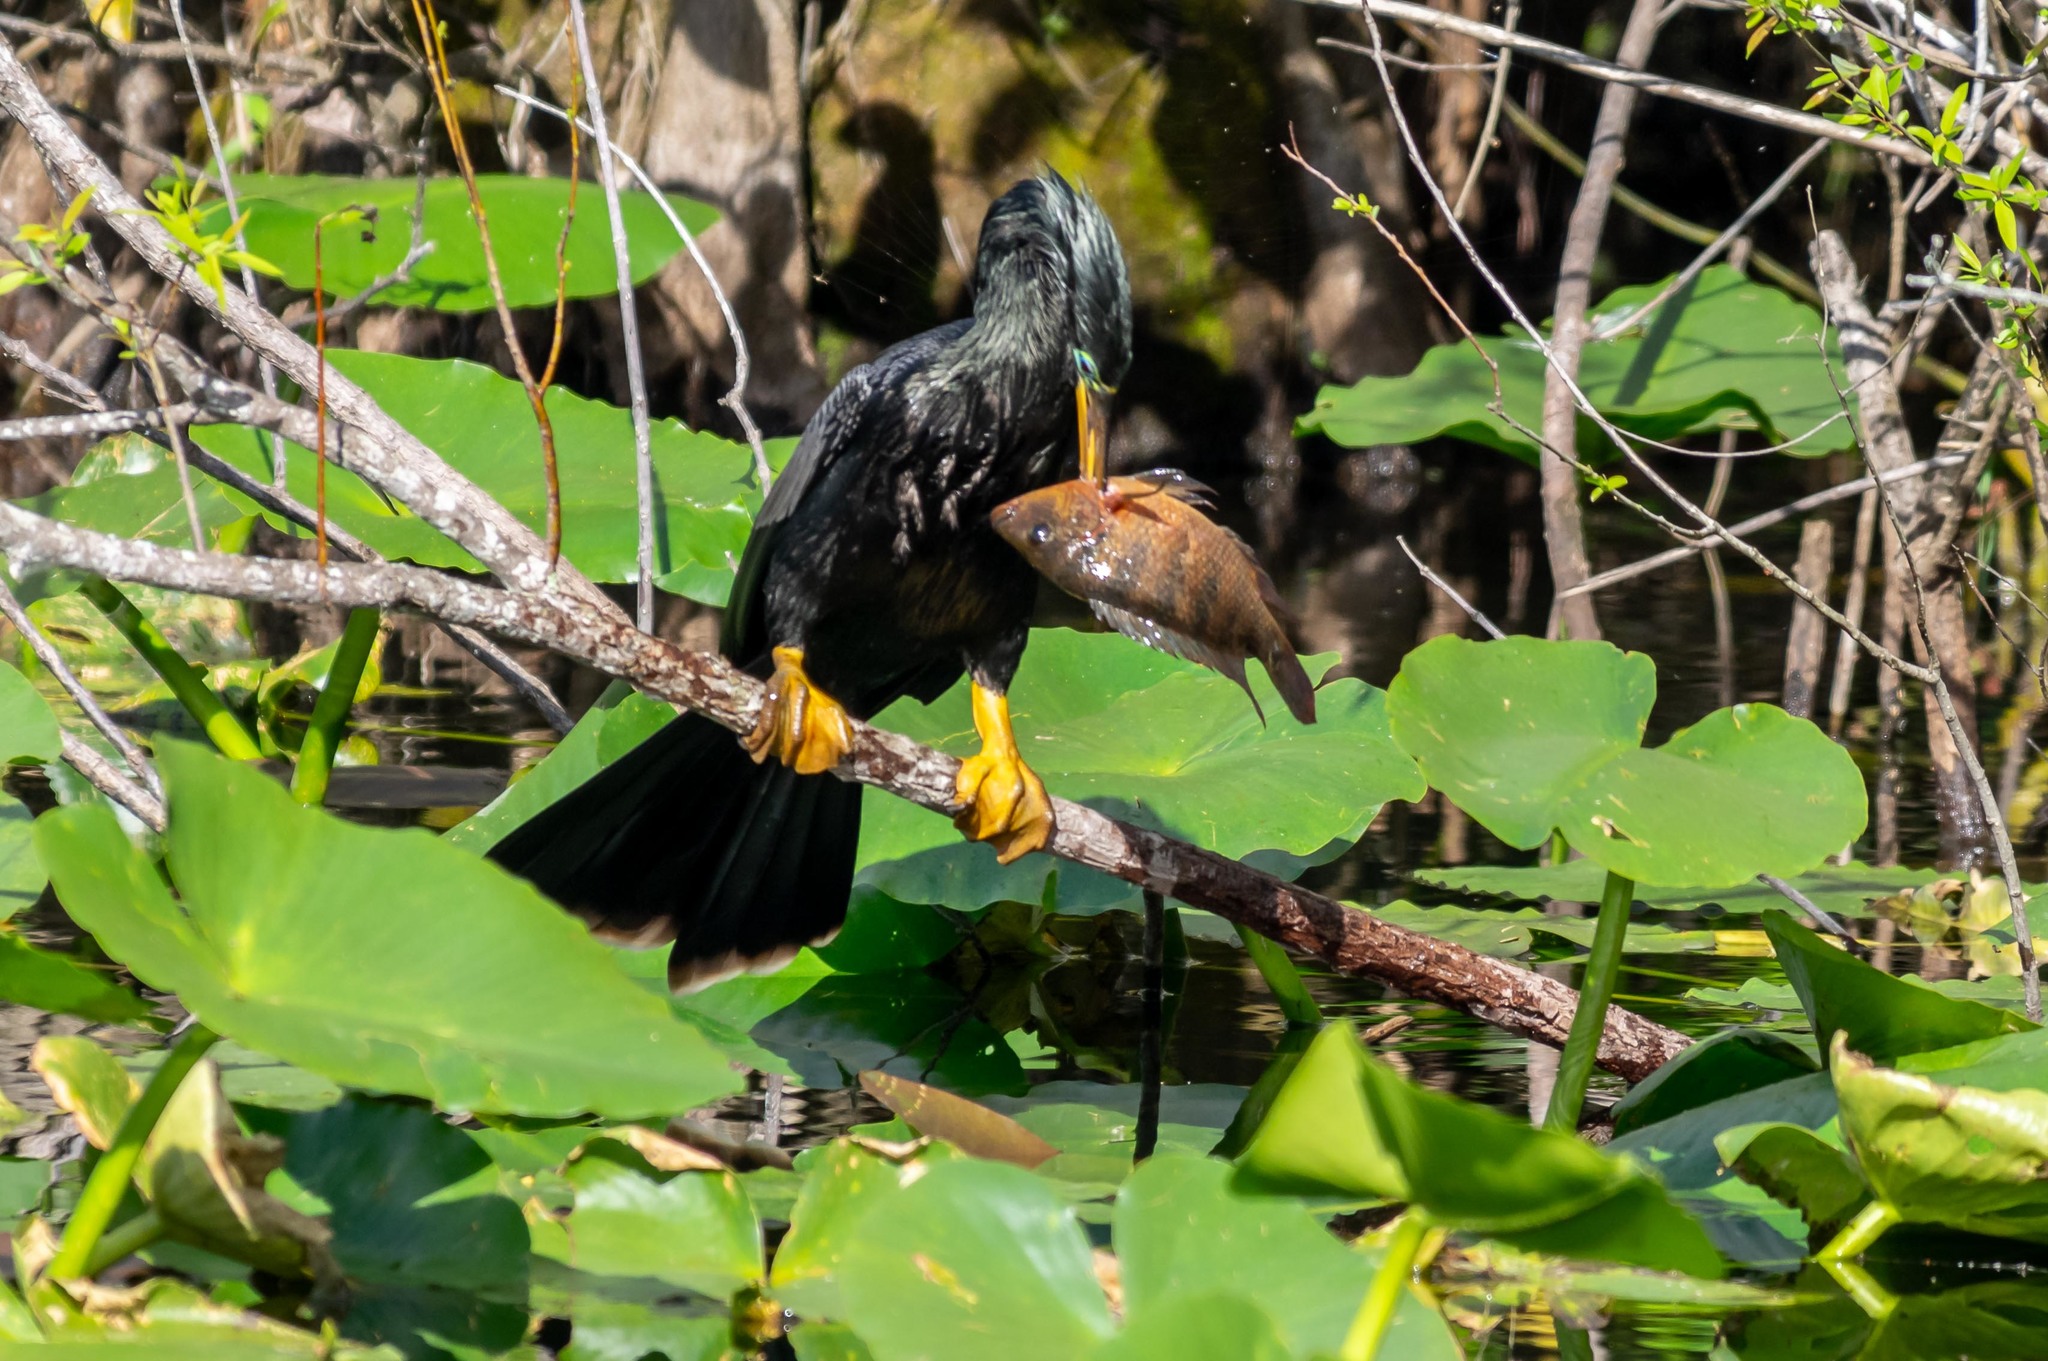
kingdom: Animalia
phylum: Chordata
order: Perciformes
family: Cichlidae
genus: Mayaheros
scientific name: Mayaheros urophthalmus
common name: Mayan cichlid
